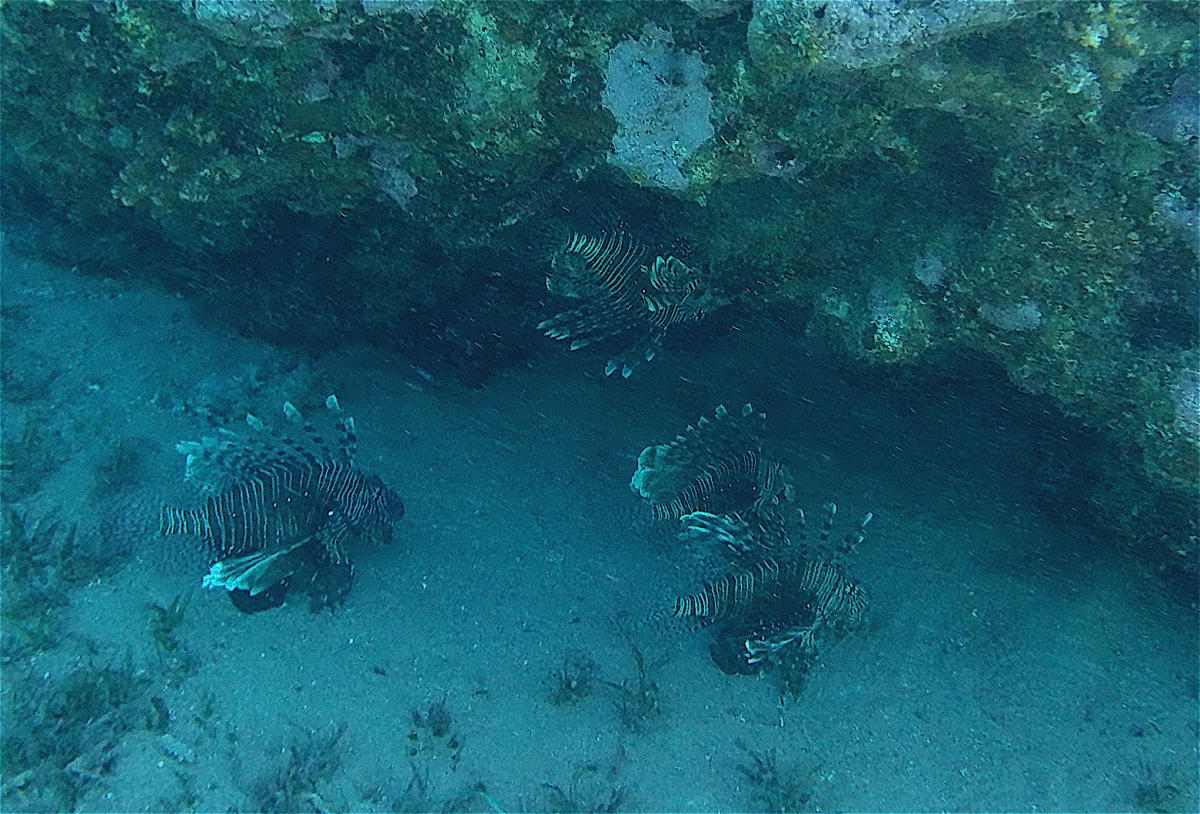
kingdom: Animalia
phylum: Chordata
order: Scorpaeniformes
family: Scorpaenidae
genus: Pterois
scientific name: Pterois miles
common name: Devil firefish
